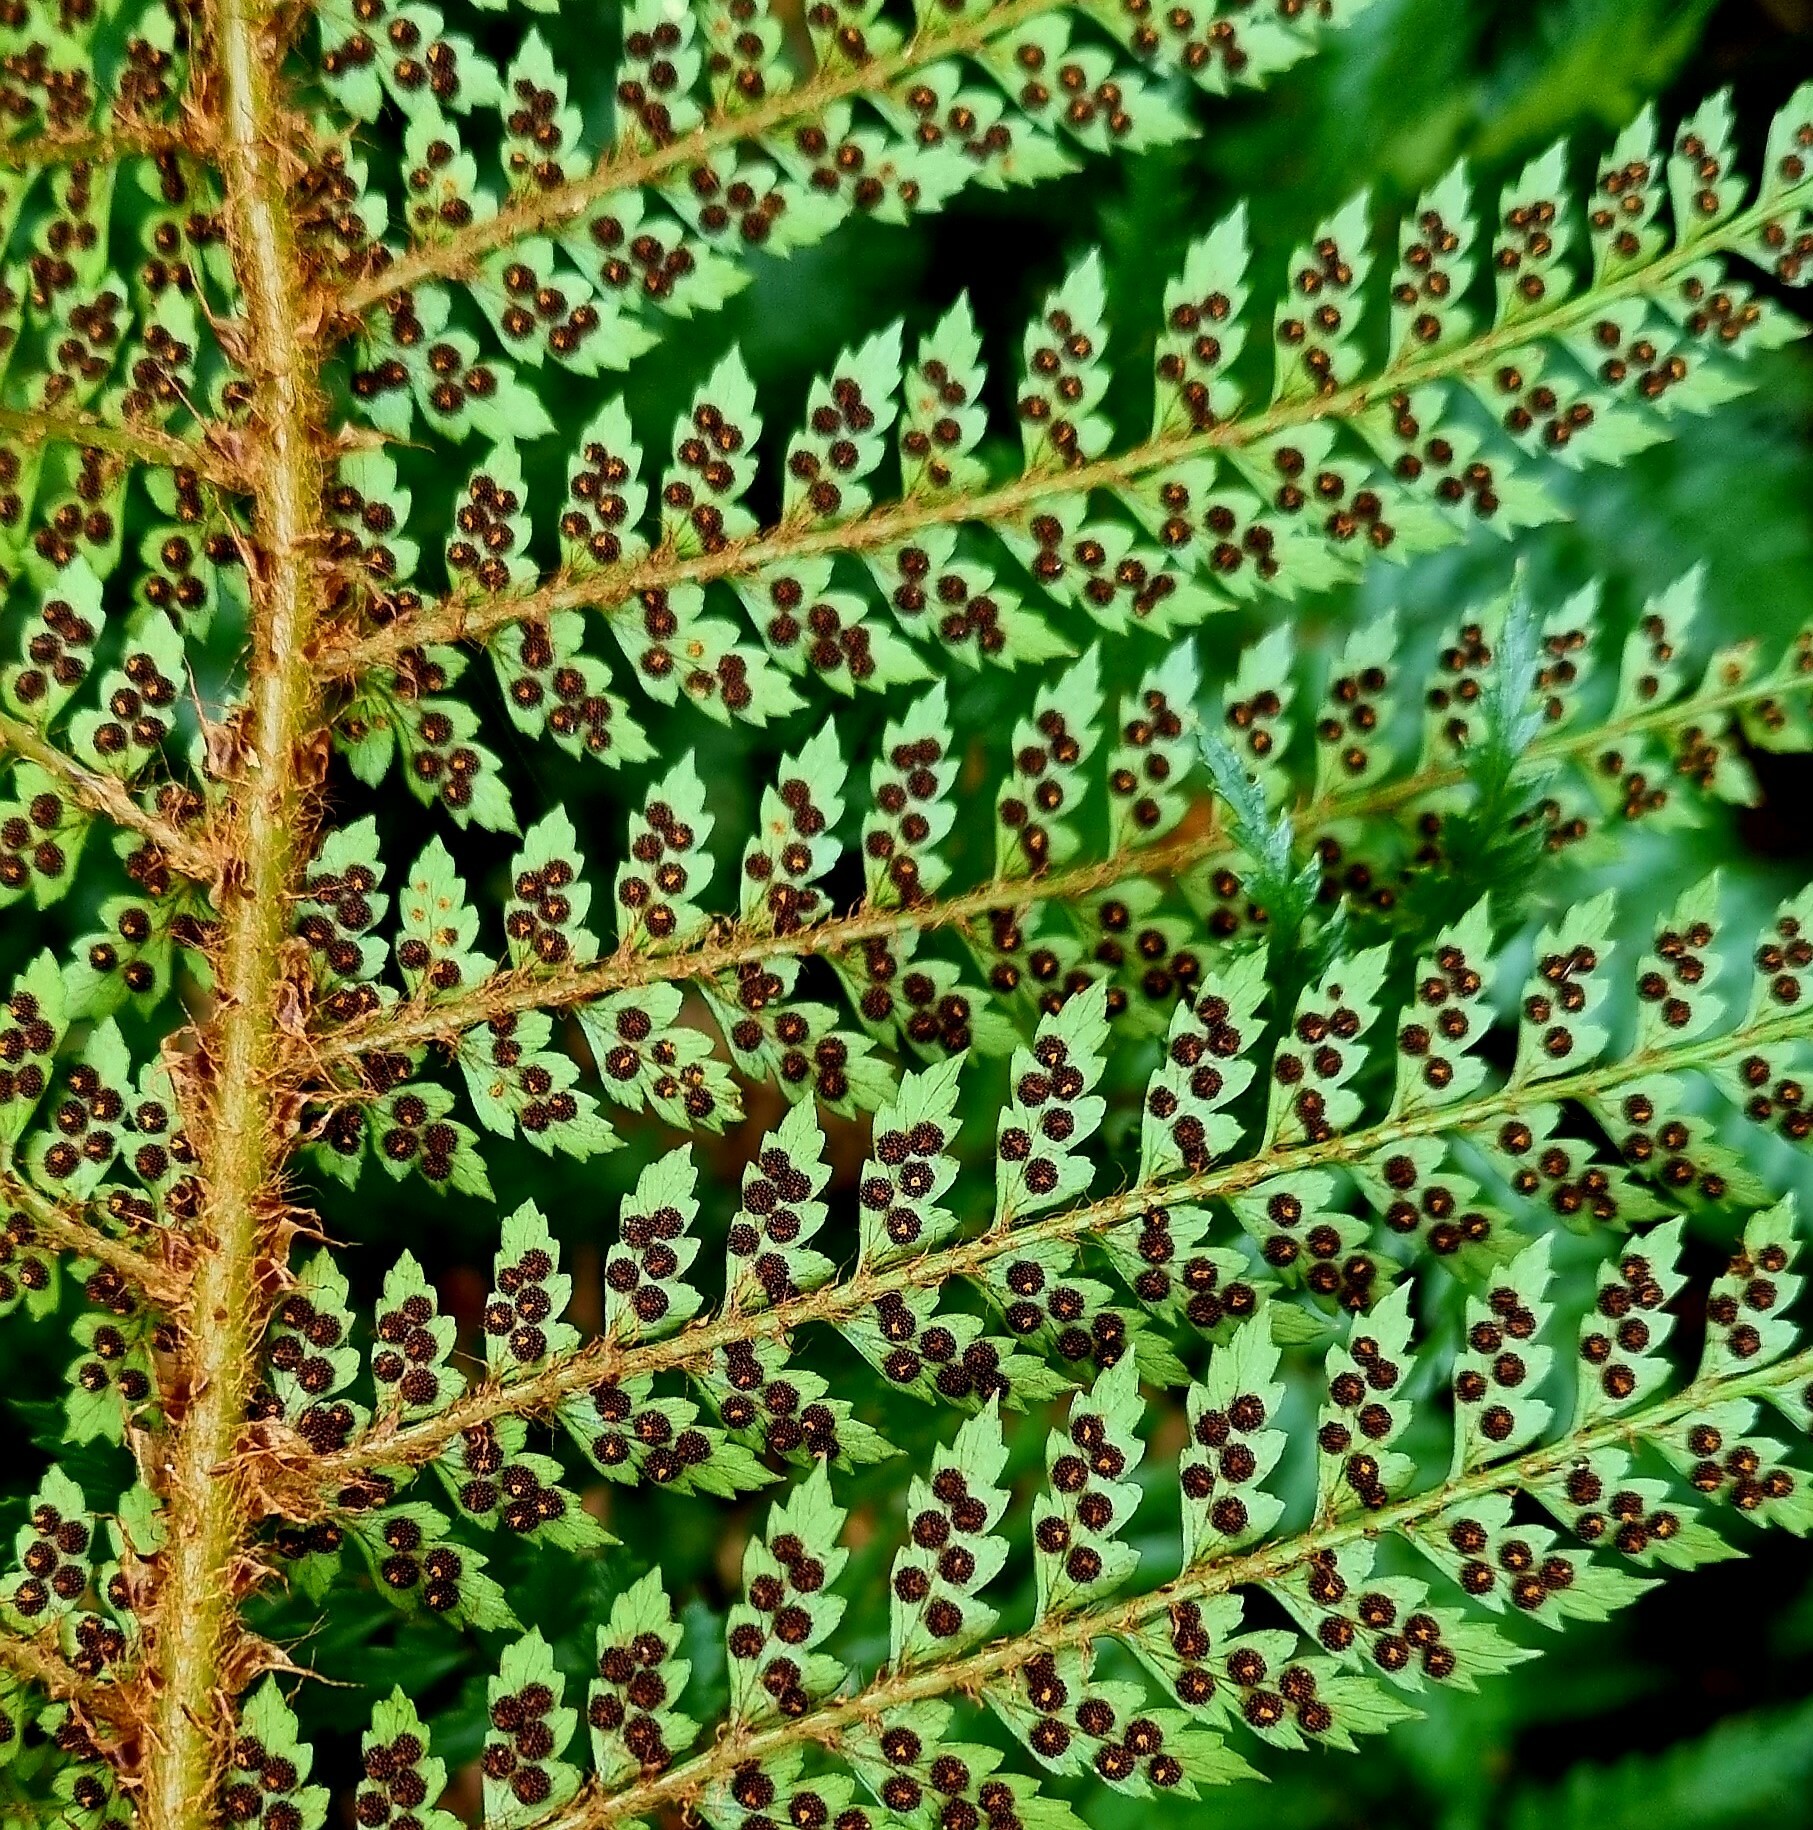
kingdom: Plantae
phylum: Tracheophyta
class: Polypodiopsida
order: Polypodiales
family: Dryopteridaceae
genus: Polystichum
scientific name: Polystichum vestitum
